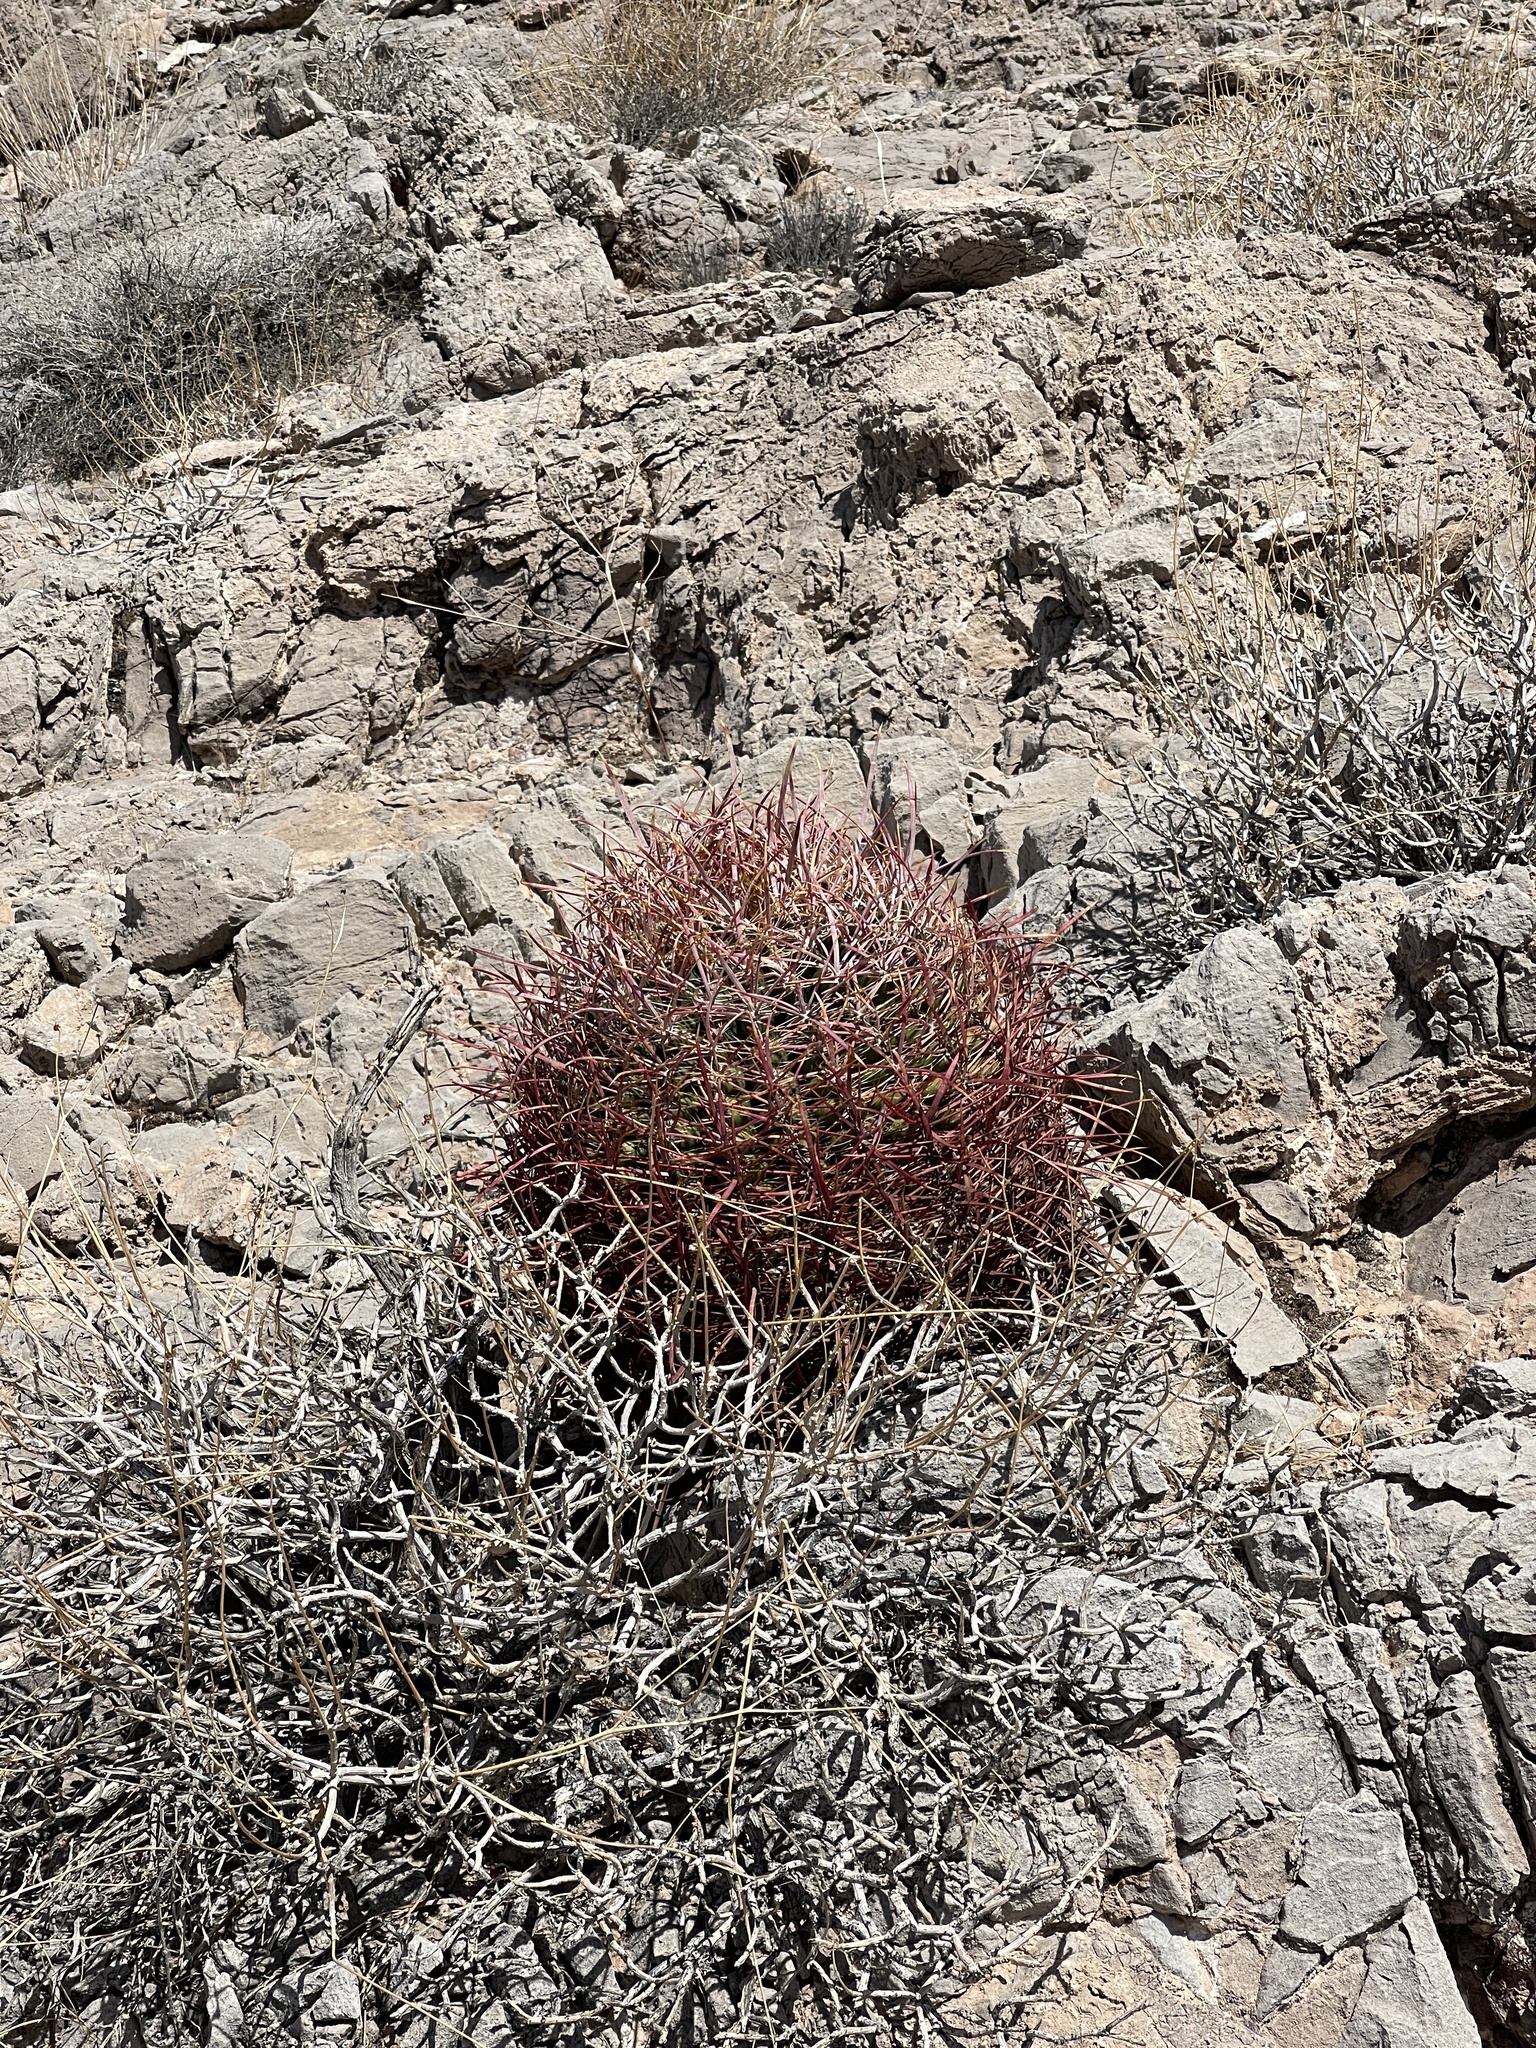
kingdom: Plantae
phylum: Tracheophyta
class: Magnoliopsida
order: Caryophyllales
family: Cactaceae
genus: Ferocactus
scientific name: Ferocactus cylindraceus
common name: California barrel cactus
